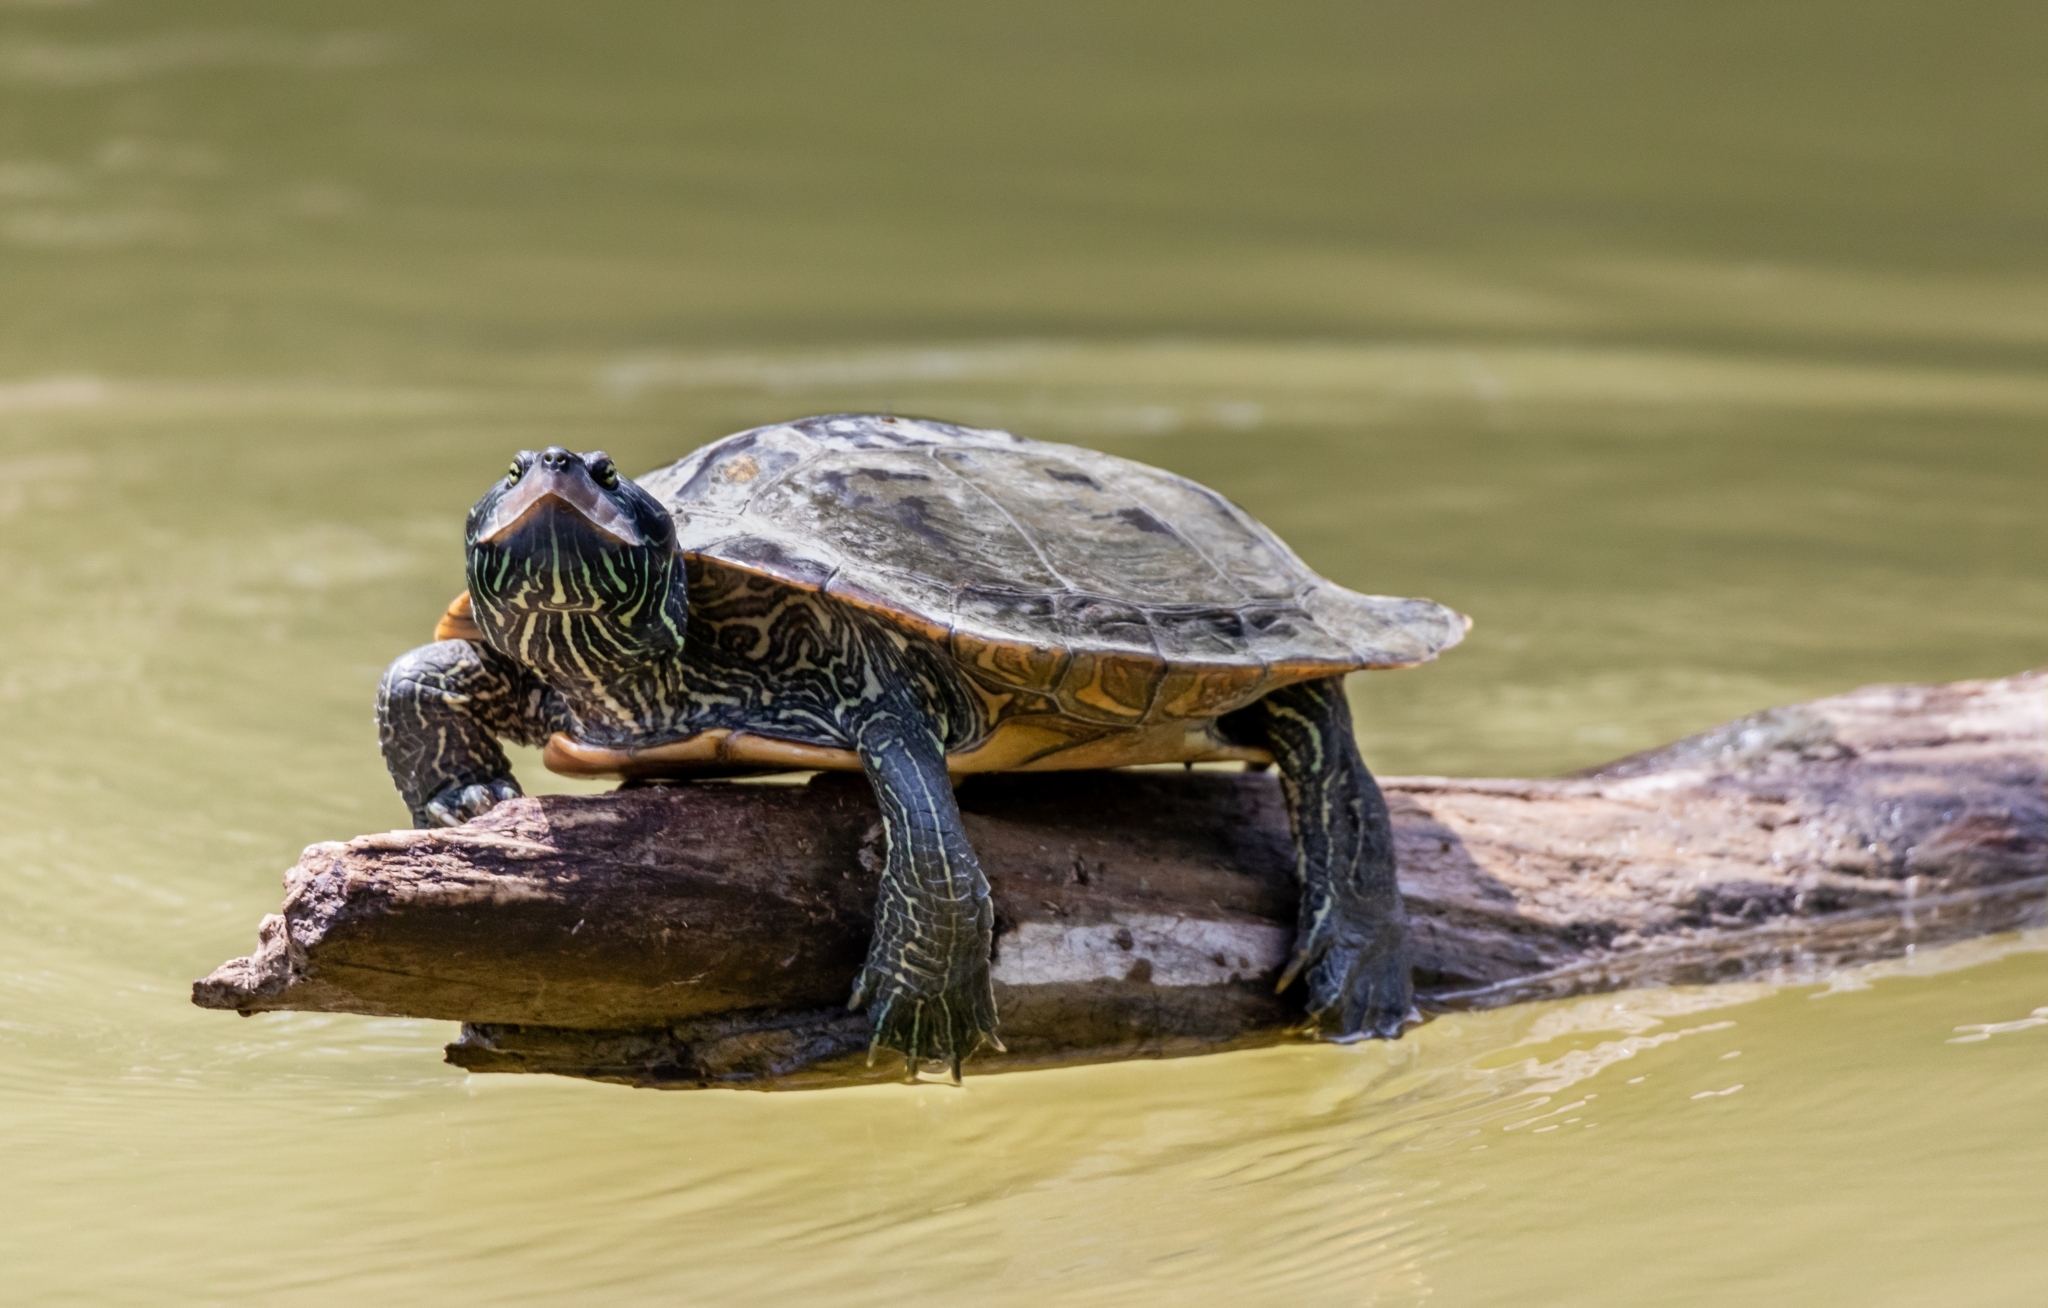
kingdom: Animalia
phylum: Chordata
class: Testudines
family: Emydidae
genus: Graptemys
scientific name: Graptemys geographica
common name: Common map turtle
